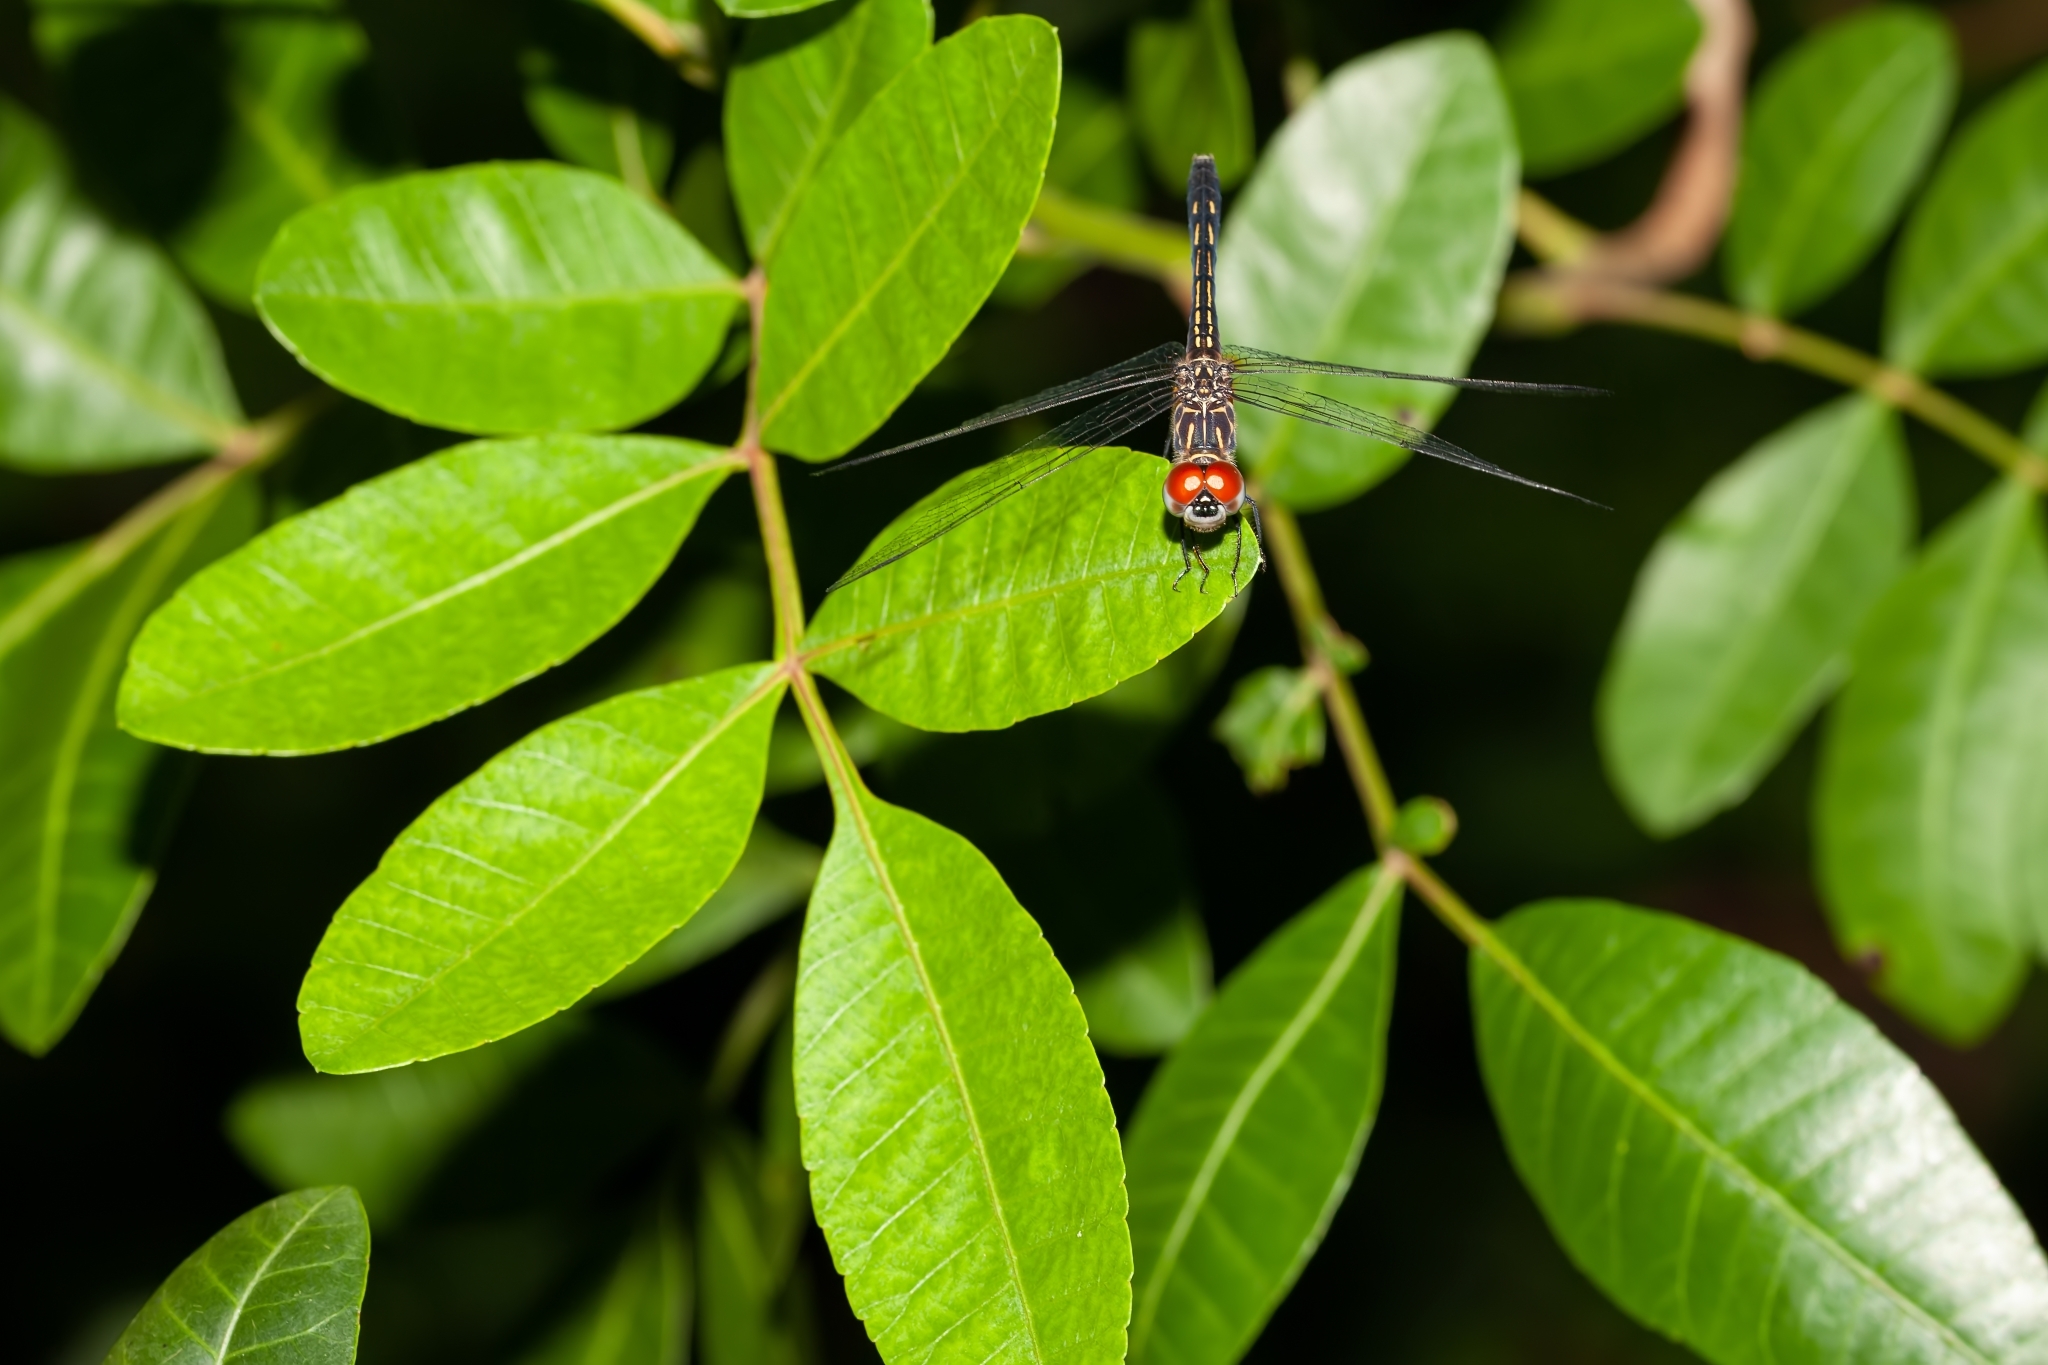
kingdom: Animalia
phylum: Arthropoda
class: Insecta
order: Odonata
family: Libellulidae
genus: Pachydiplax
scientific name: Pachydiplax longipennis
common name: Blue dasher
